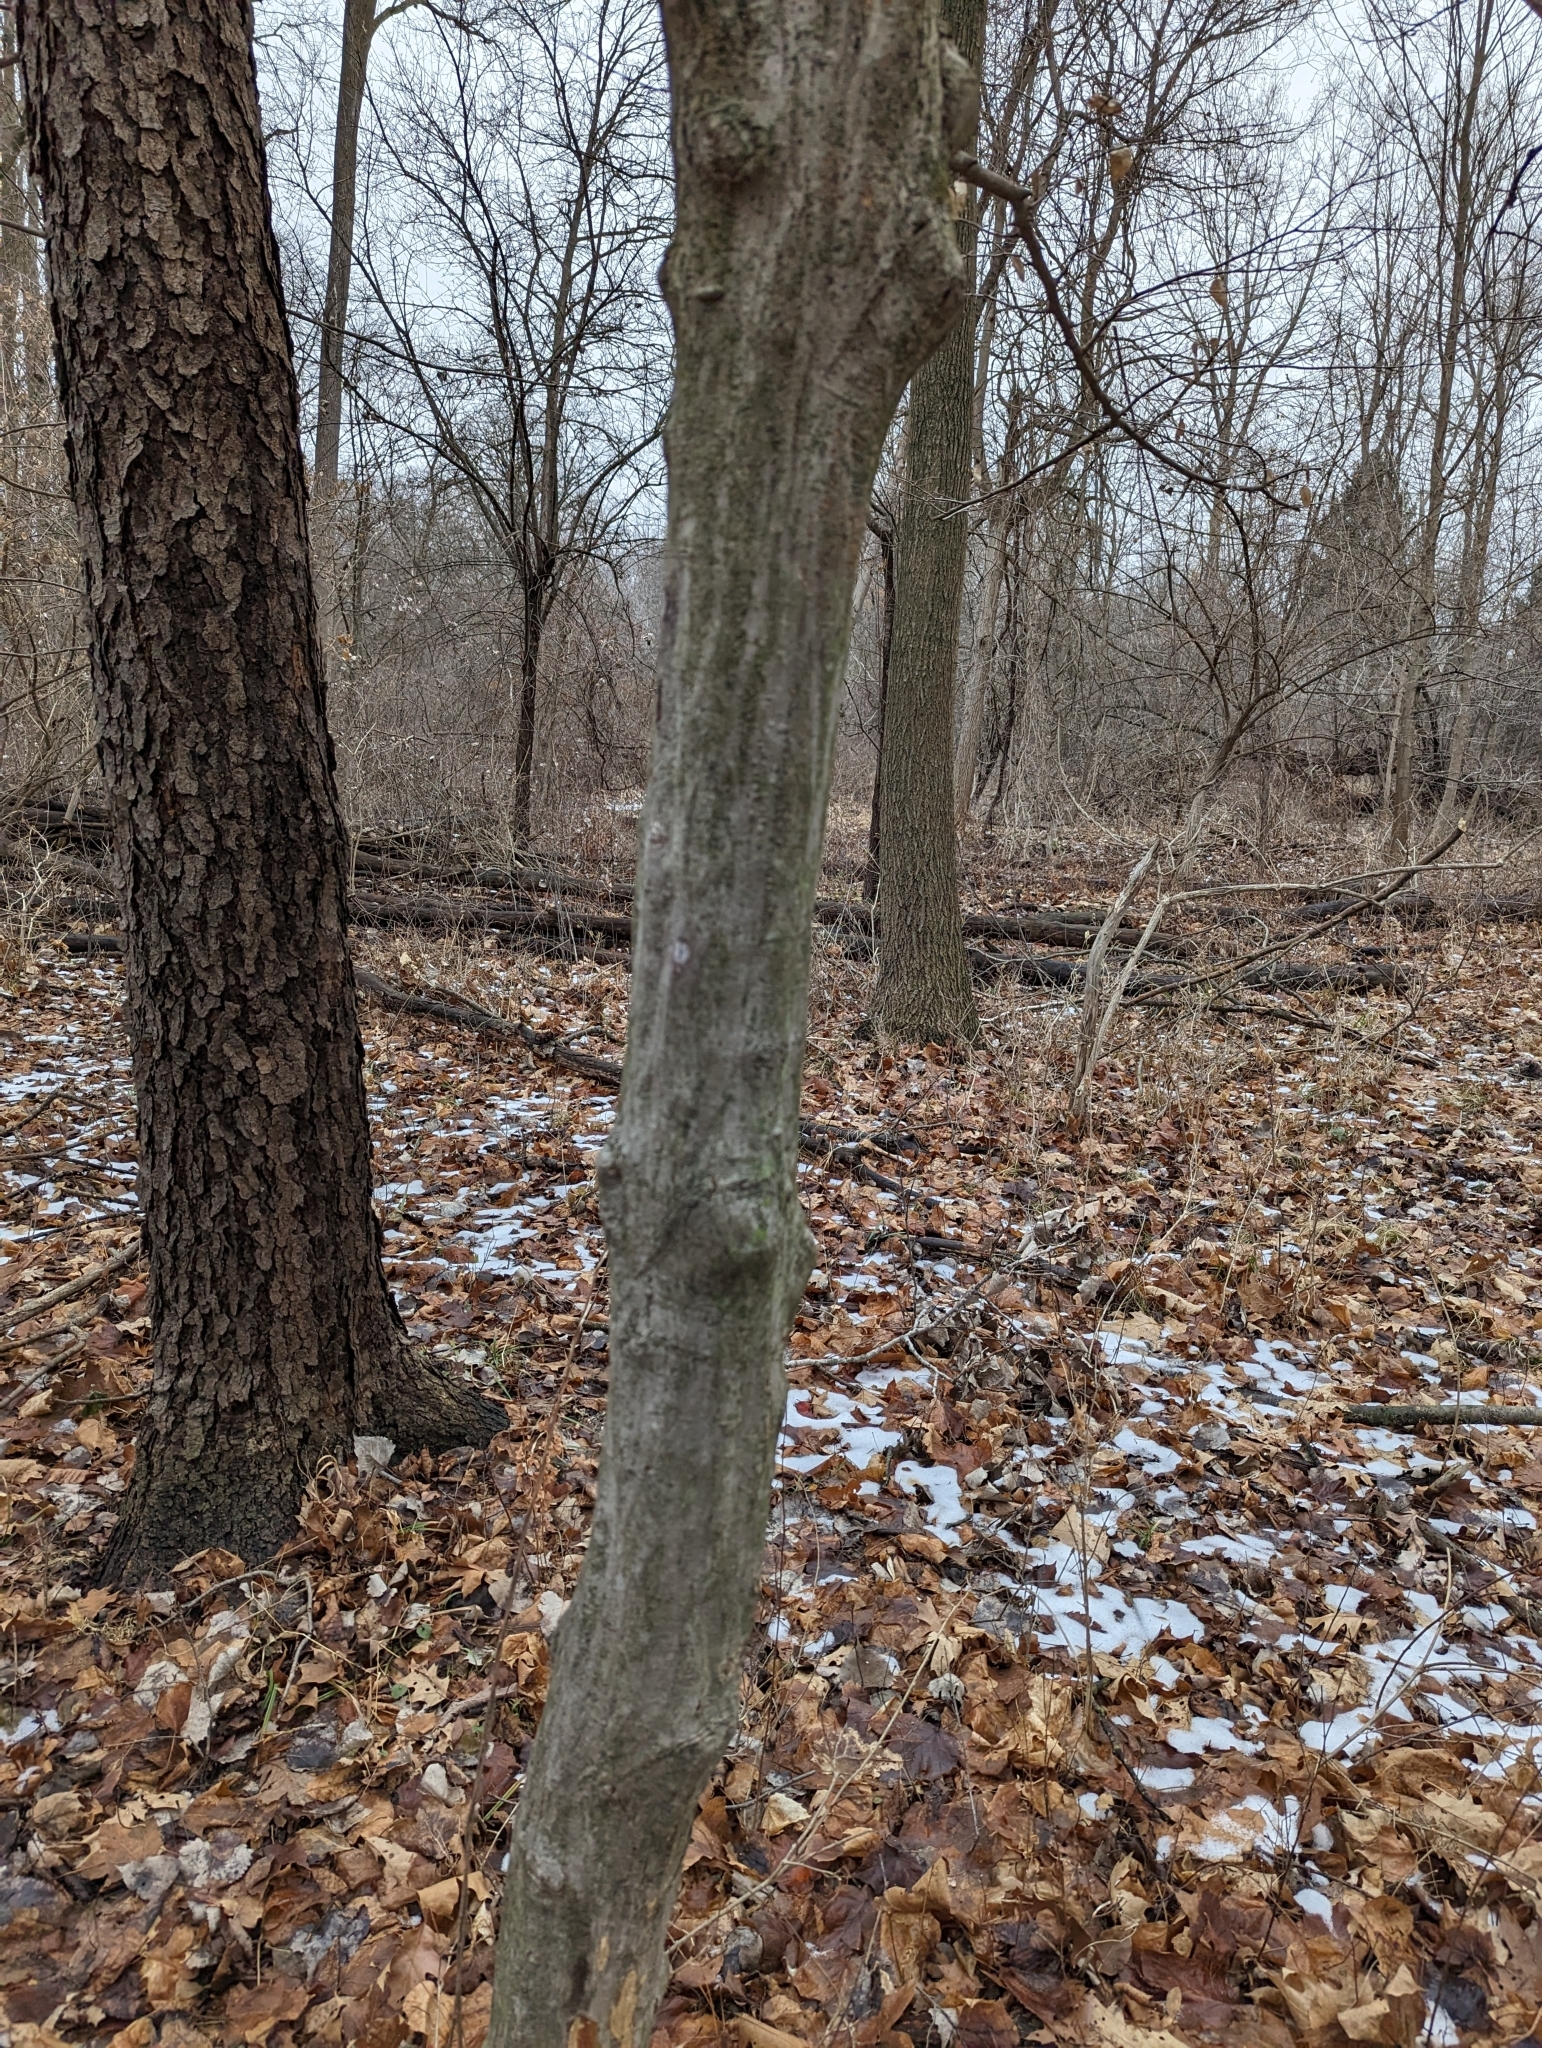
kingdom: Plantae
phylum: Tracheophyta
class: Magnoliopsida
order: Fagales
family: Betulaceae
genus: Carpinus
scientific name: Carpinus caroliniana
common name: American hornbeam
